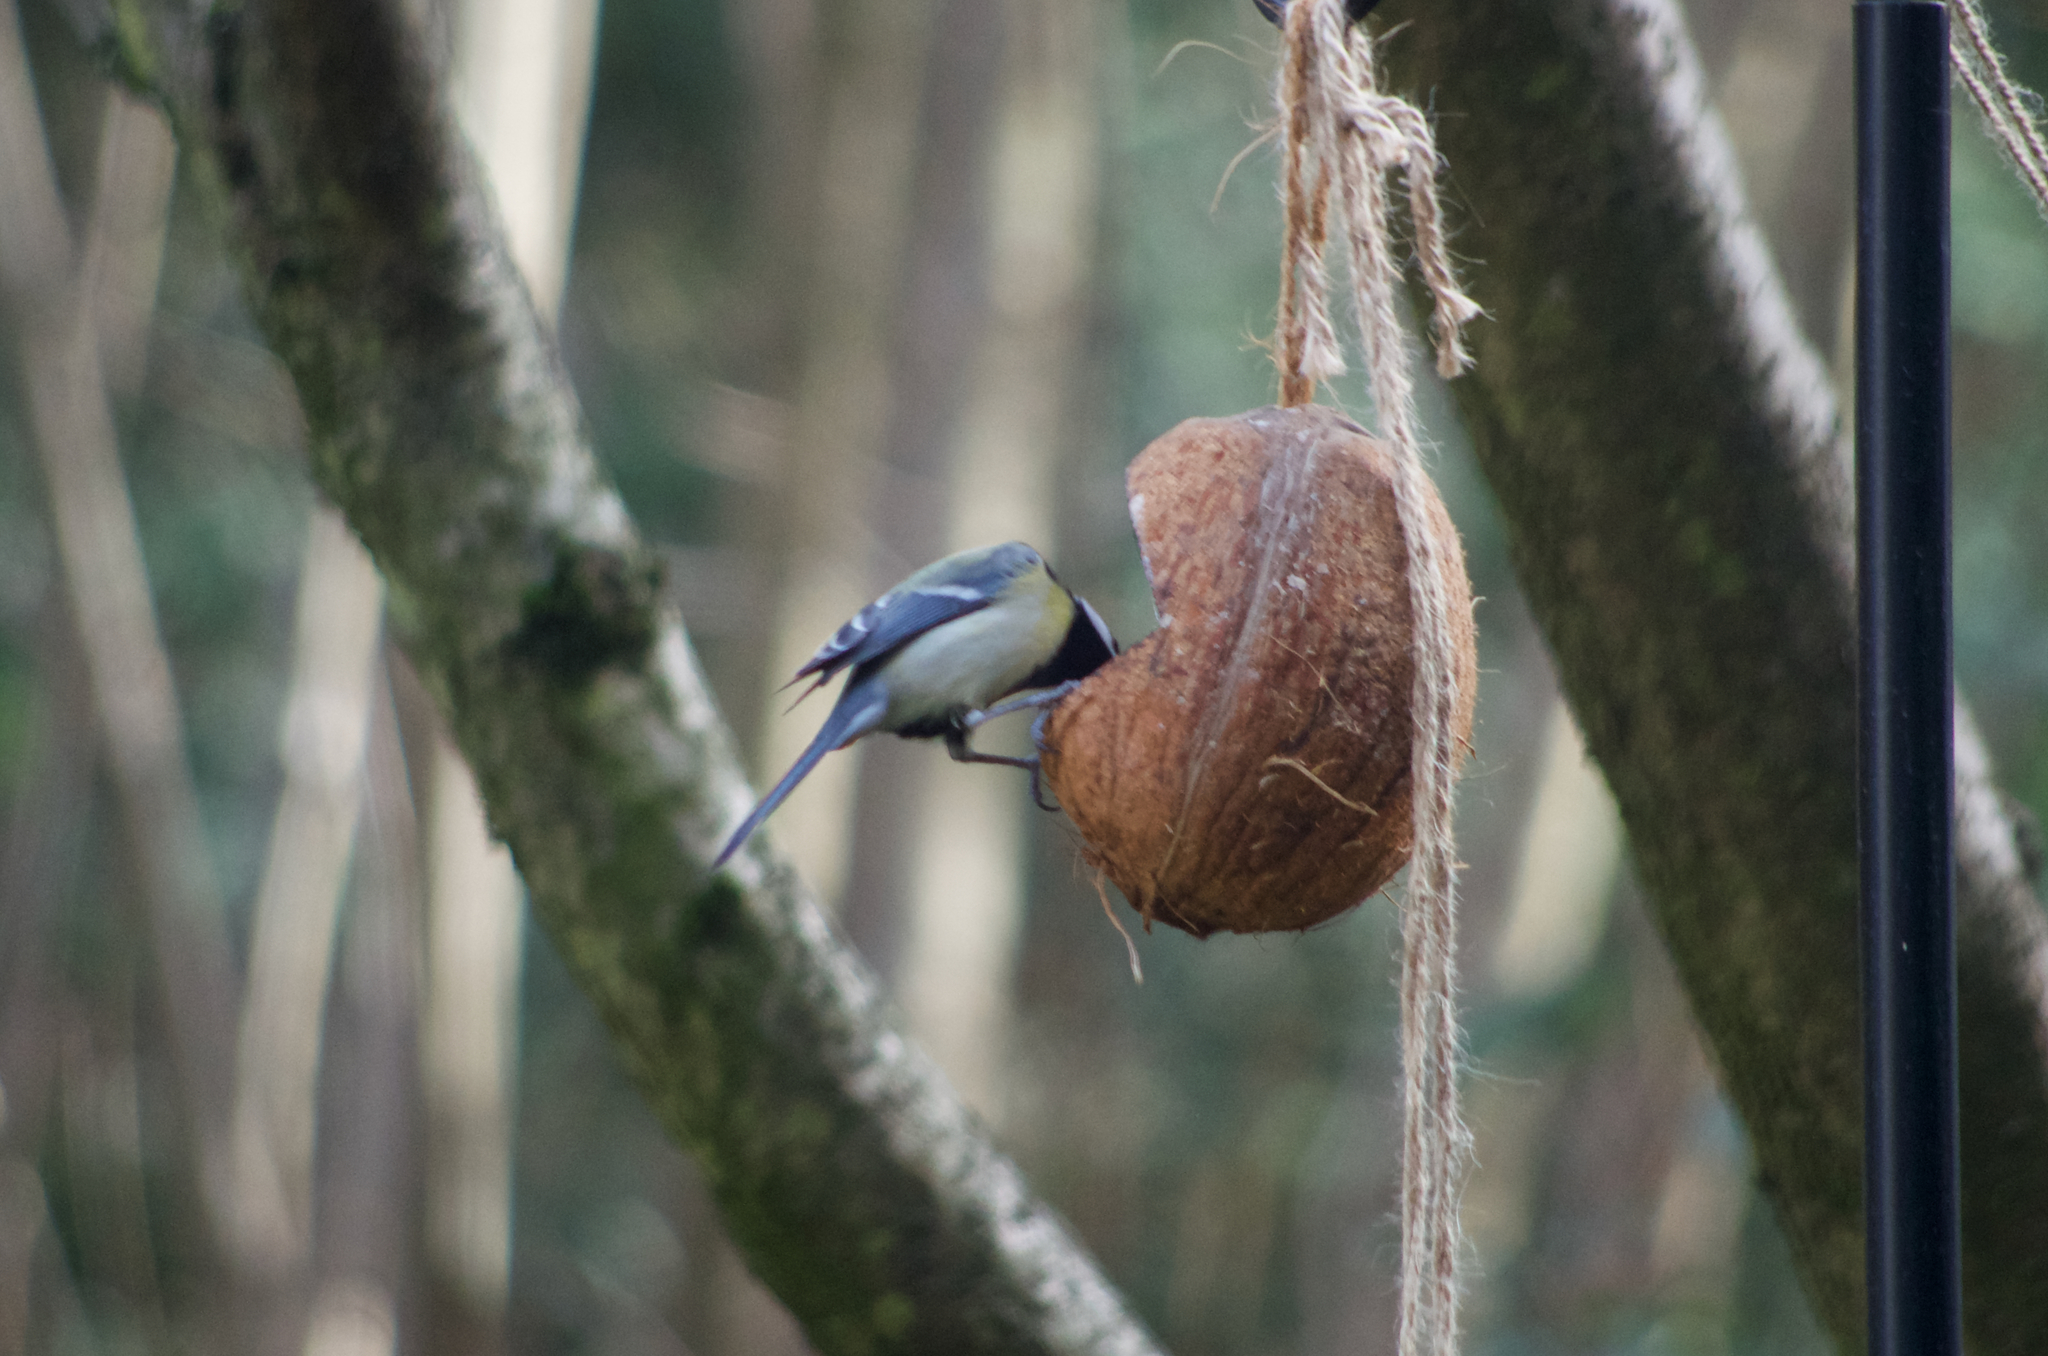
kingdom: Animalia
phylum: Chordata
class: Aves
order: Passeriformes
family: Paridae
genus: Parus
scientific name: Parus major
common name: Great tit
